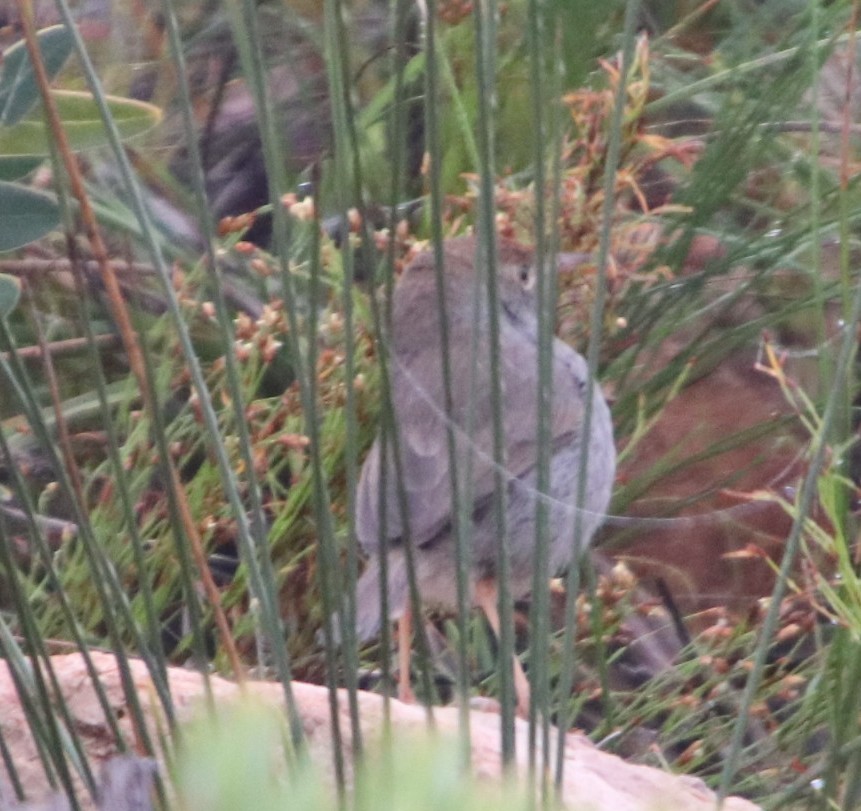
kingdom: Animalia
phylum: Chordata
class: Aves
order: Passeriformes
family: Cisticolidae
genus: Cisticola
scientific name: Cisticola fulvicapilla
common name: Neddicky
